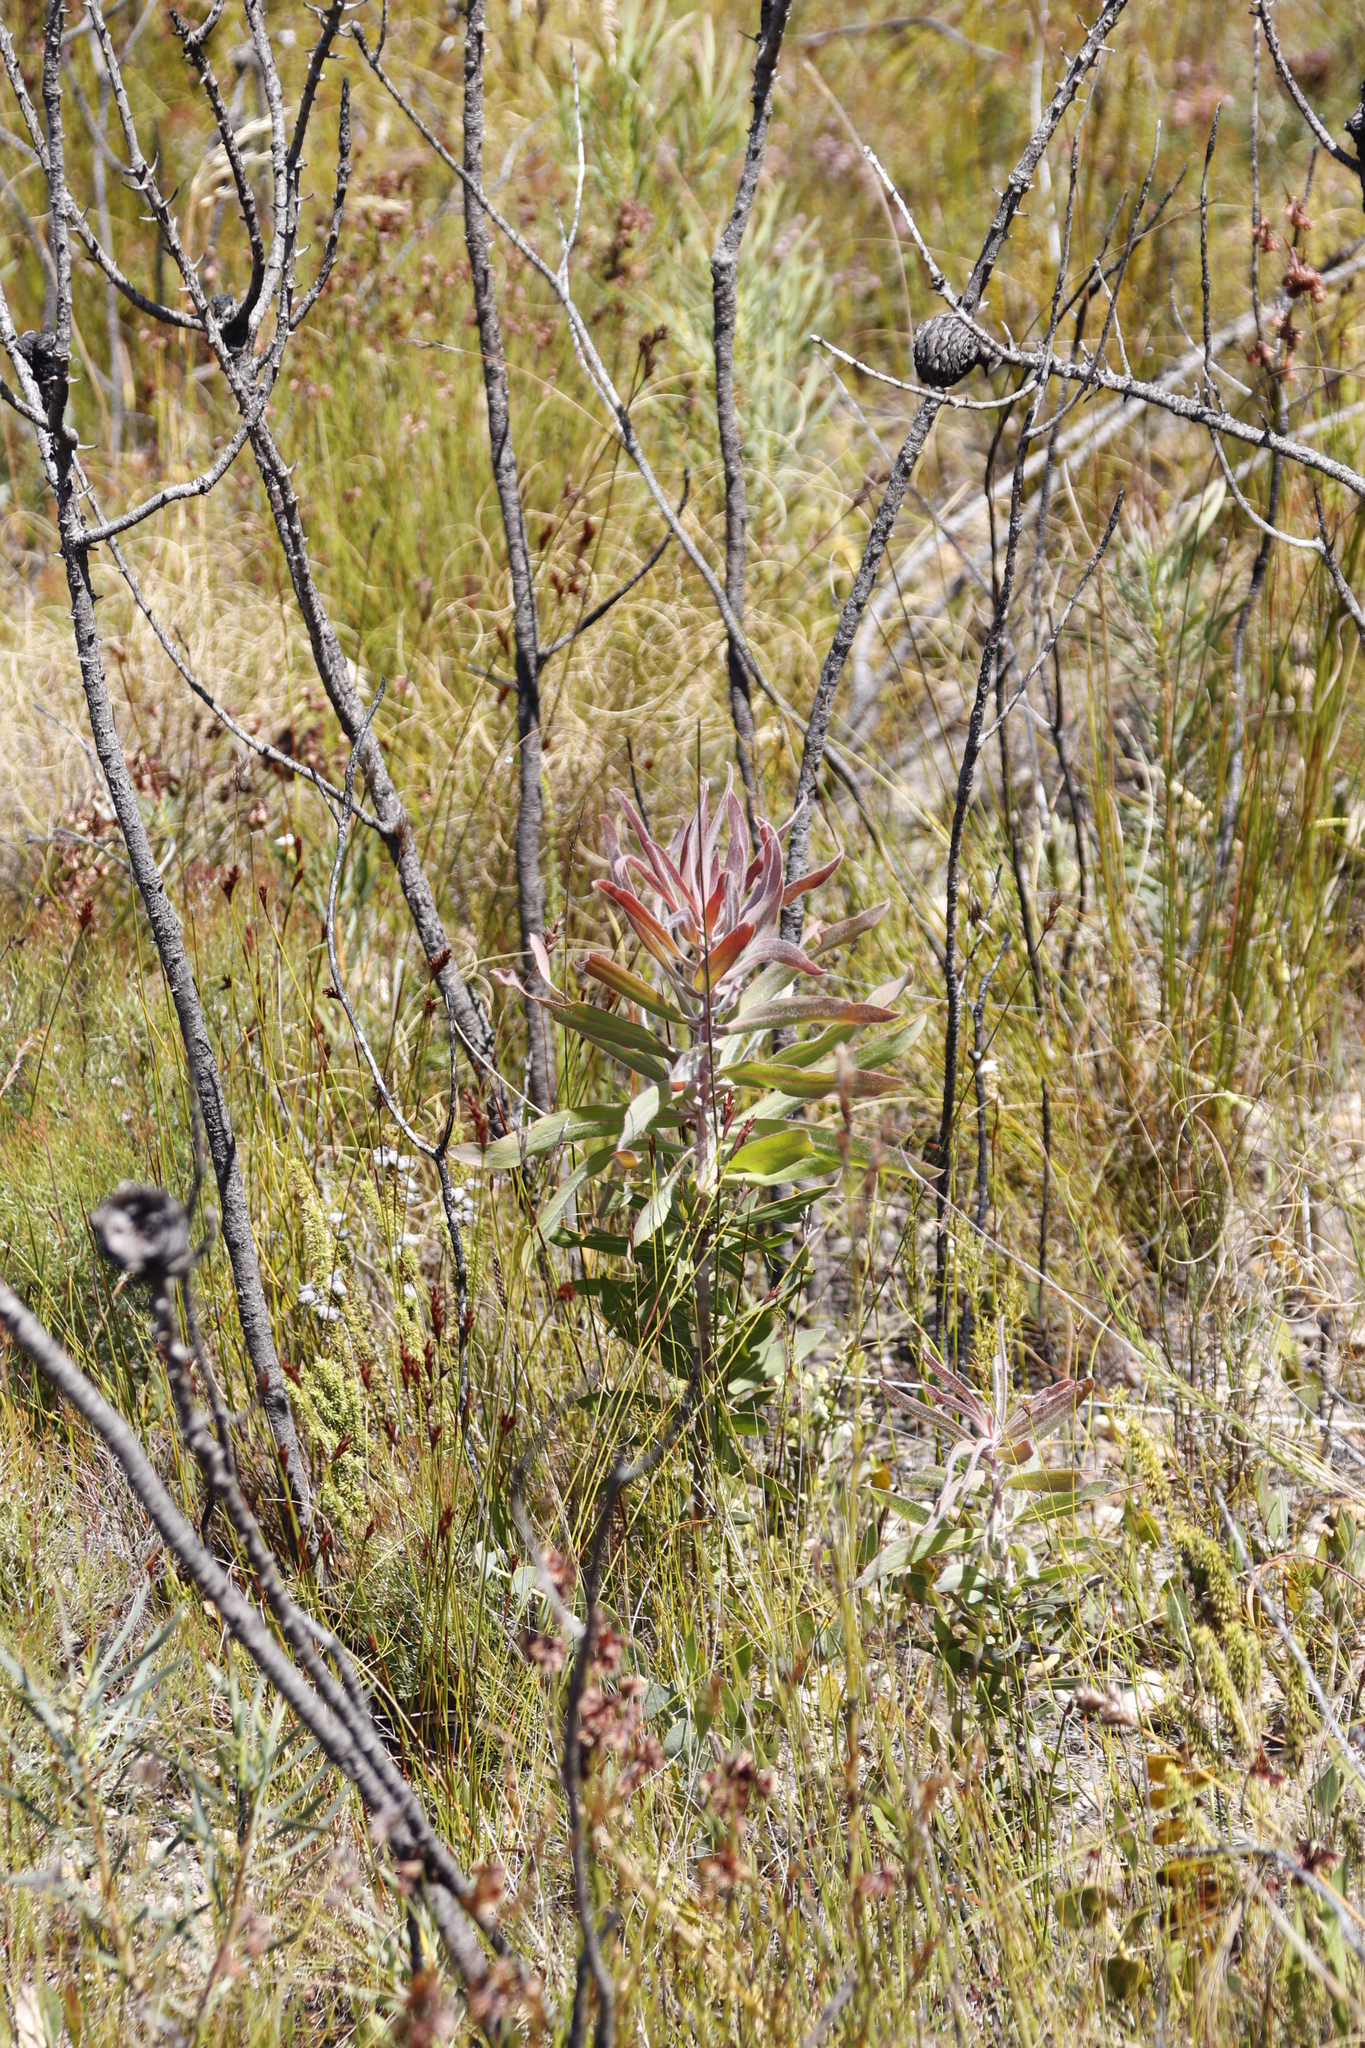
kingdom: Plantae
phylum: Tracheophyta
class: Magnoliopsida
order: Proteales
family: Proteaceae
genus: Protea
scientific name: Protea neriifolia
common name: Blue sugarbush
